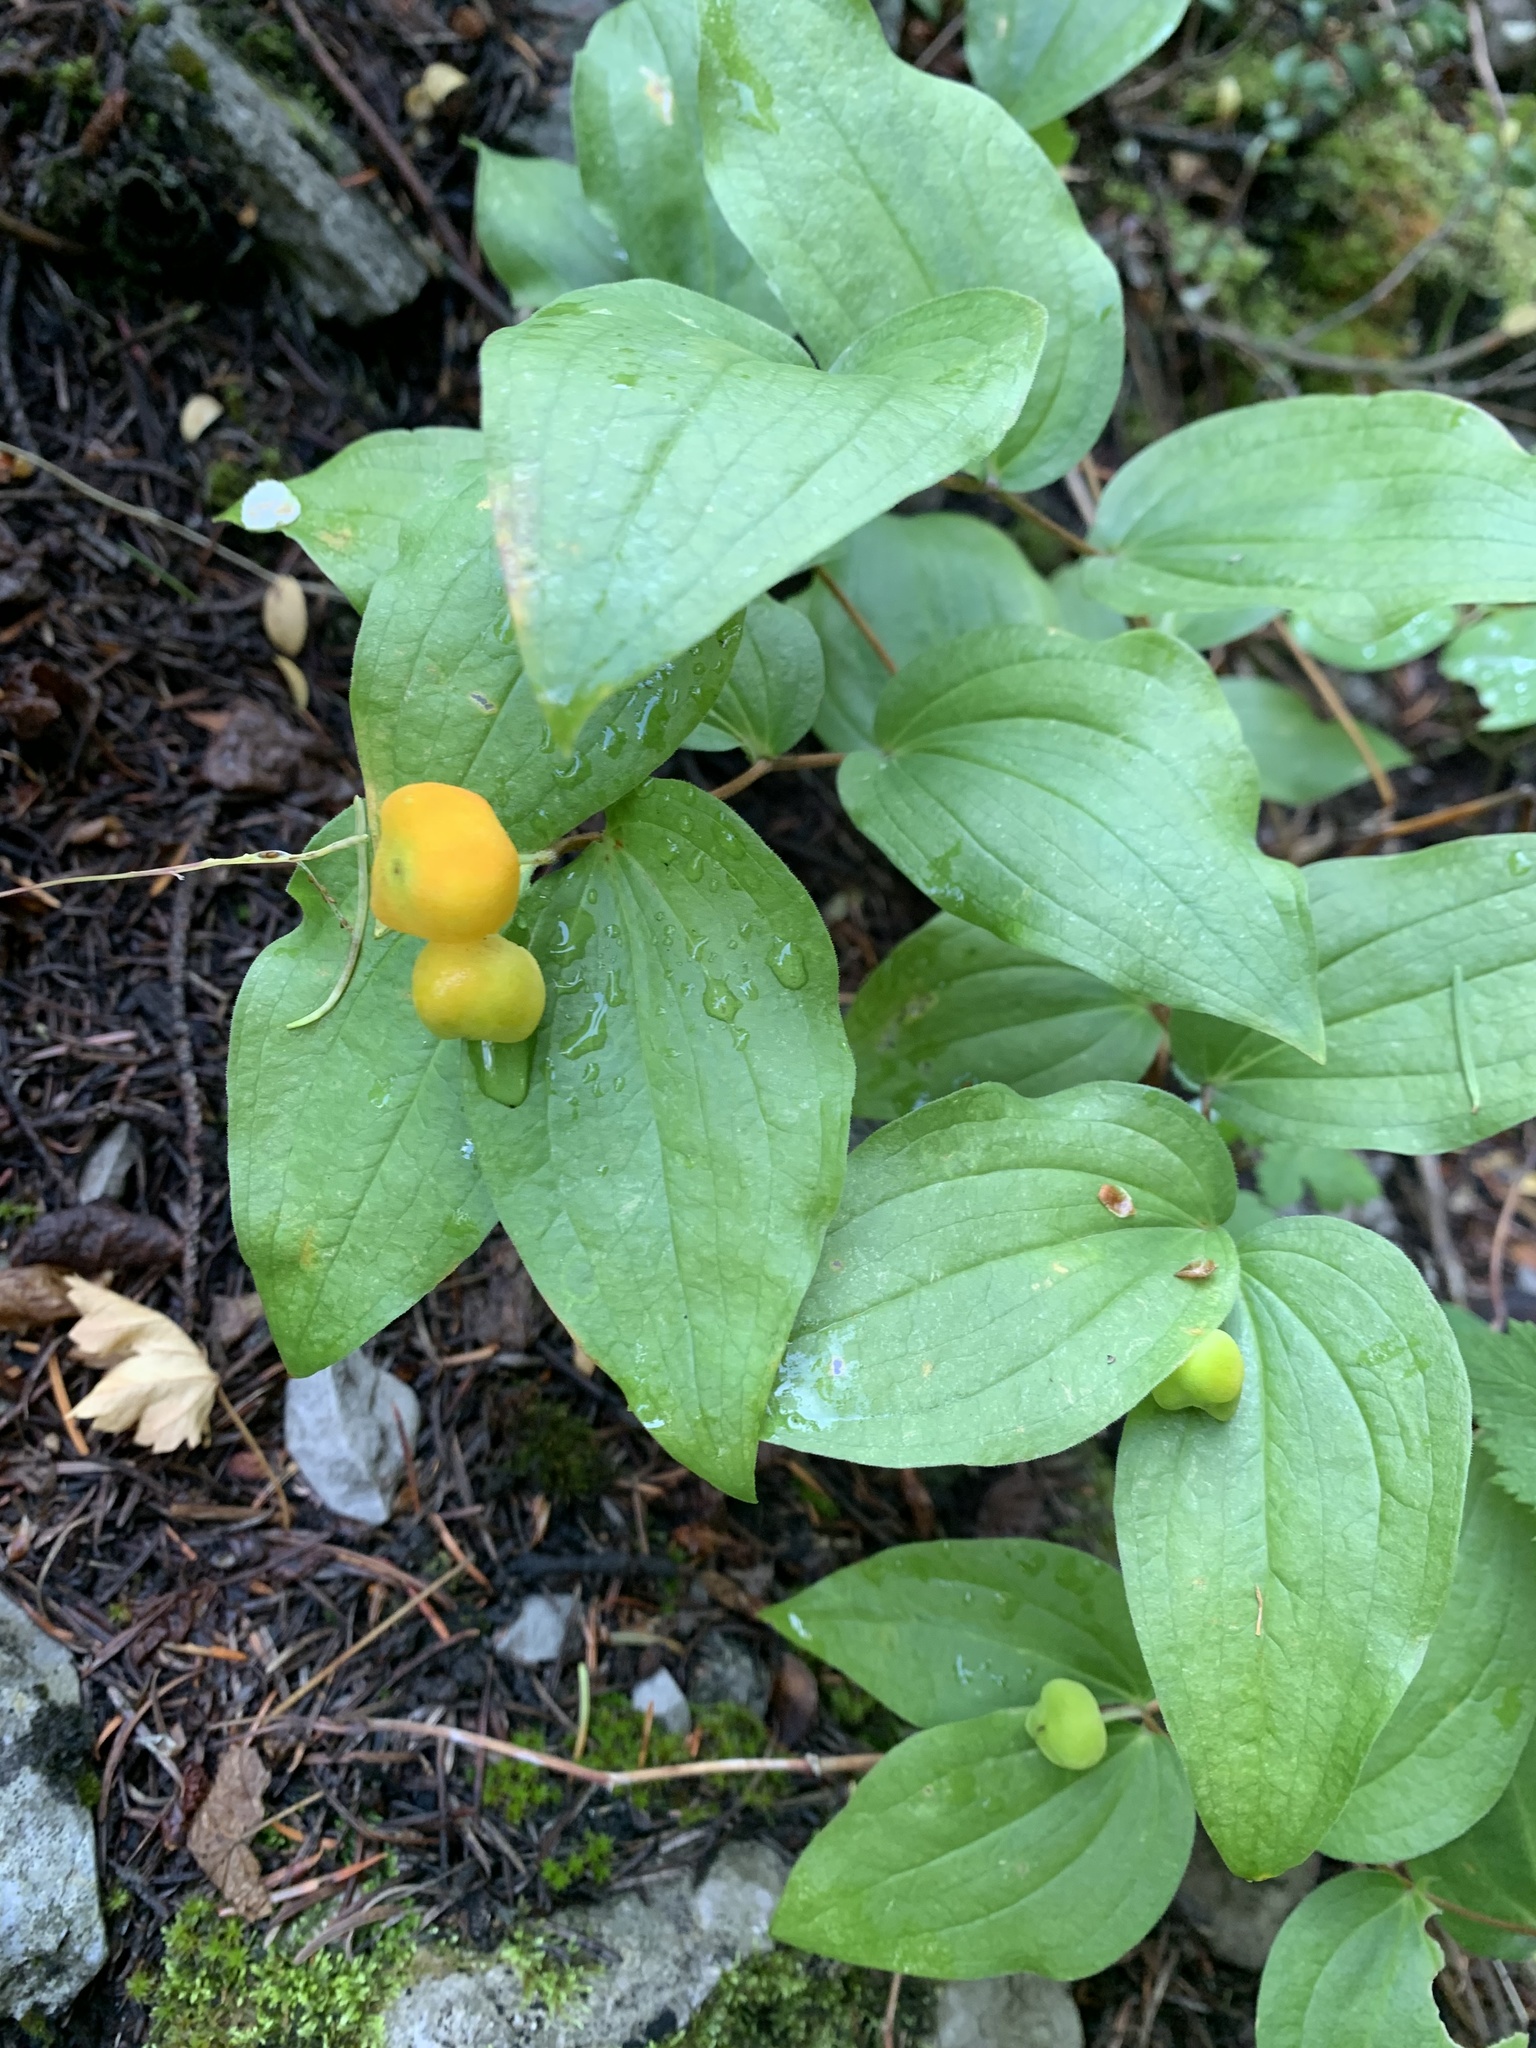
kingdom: Plantae
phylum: Tracheophyta
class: Liliopsida
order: Liliales
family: Liliaceae
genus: Prosartes
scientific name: Prosartes trachycarpa
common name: Rough-fruit fairy-bells
